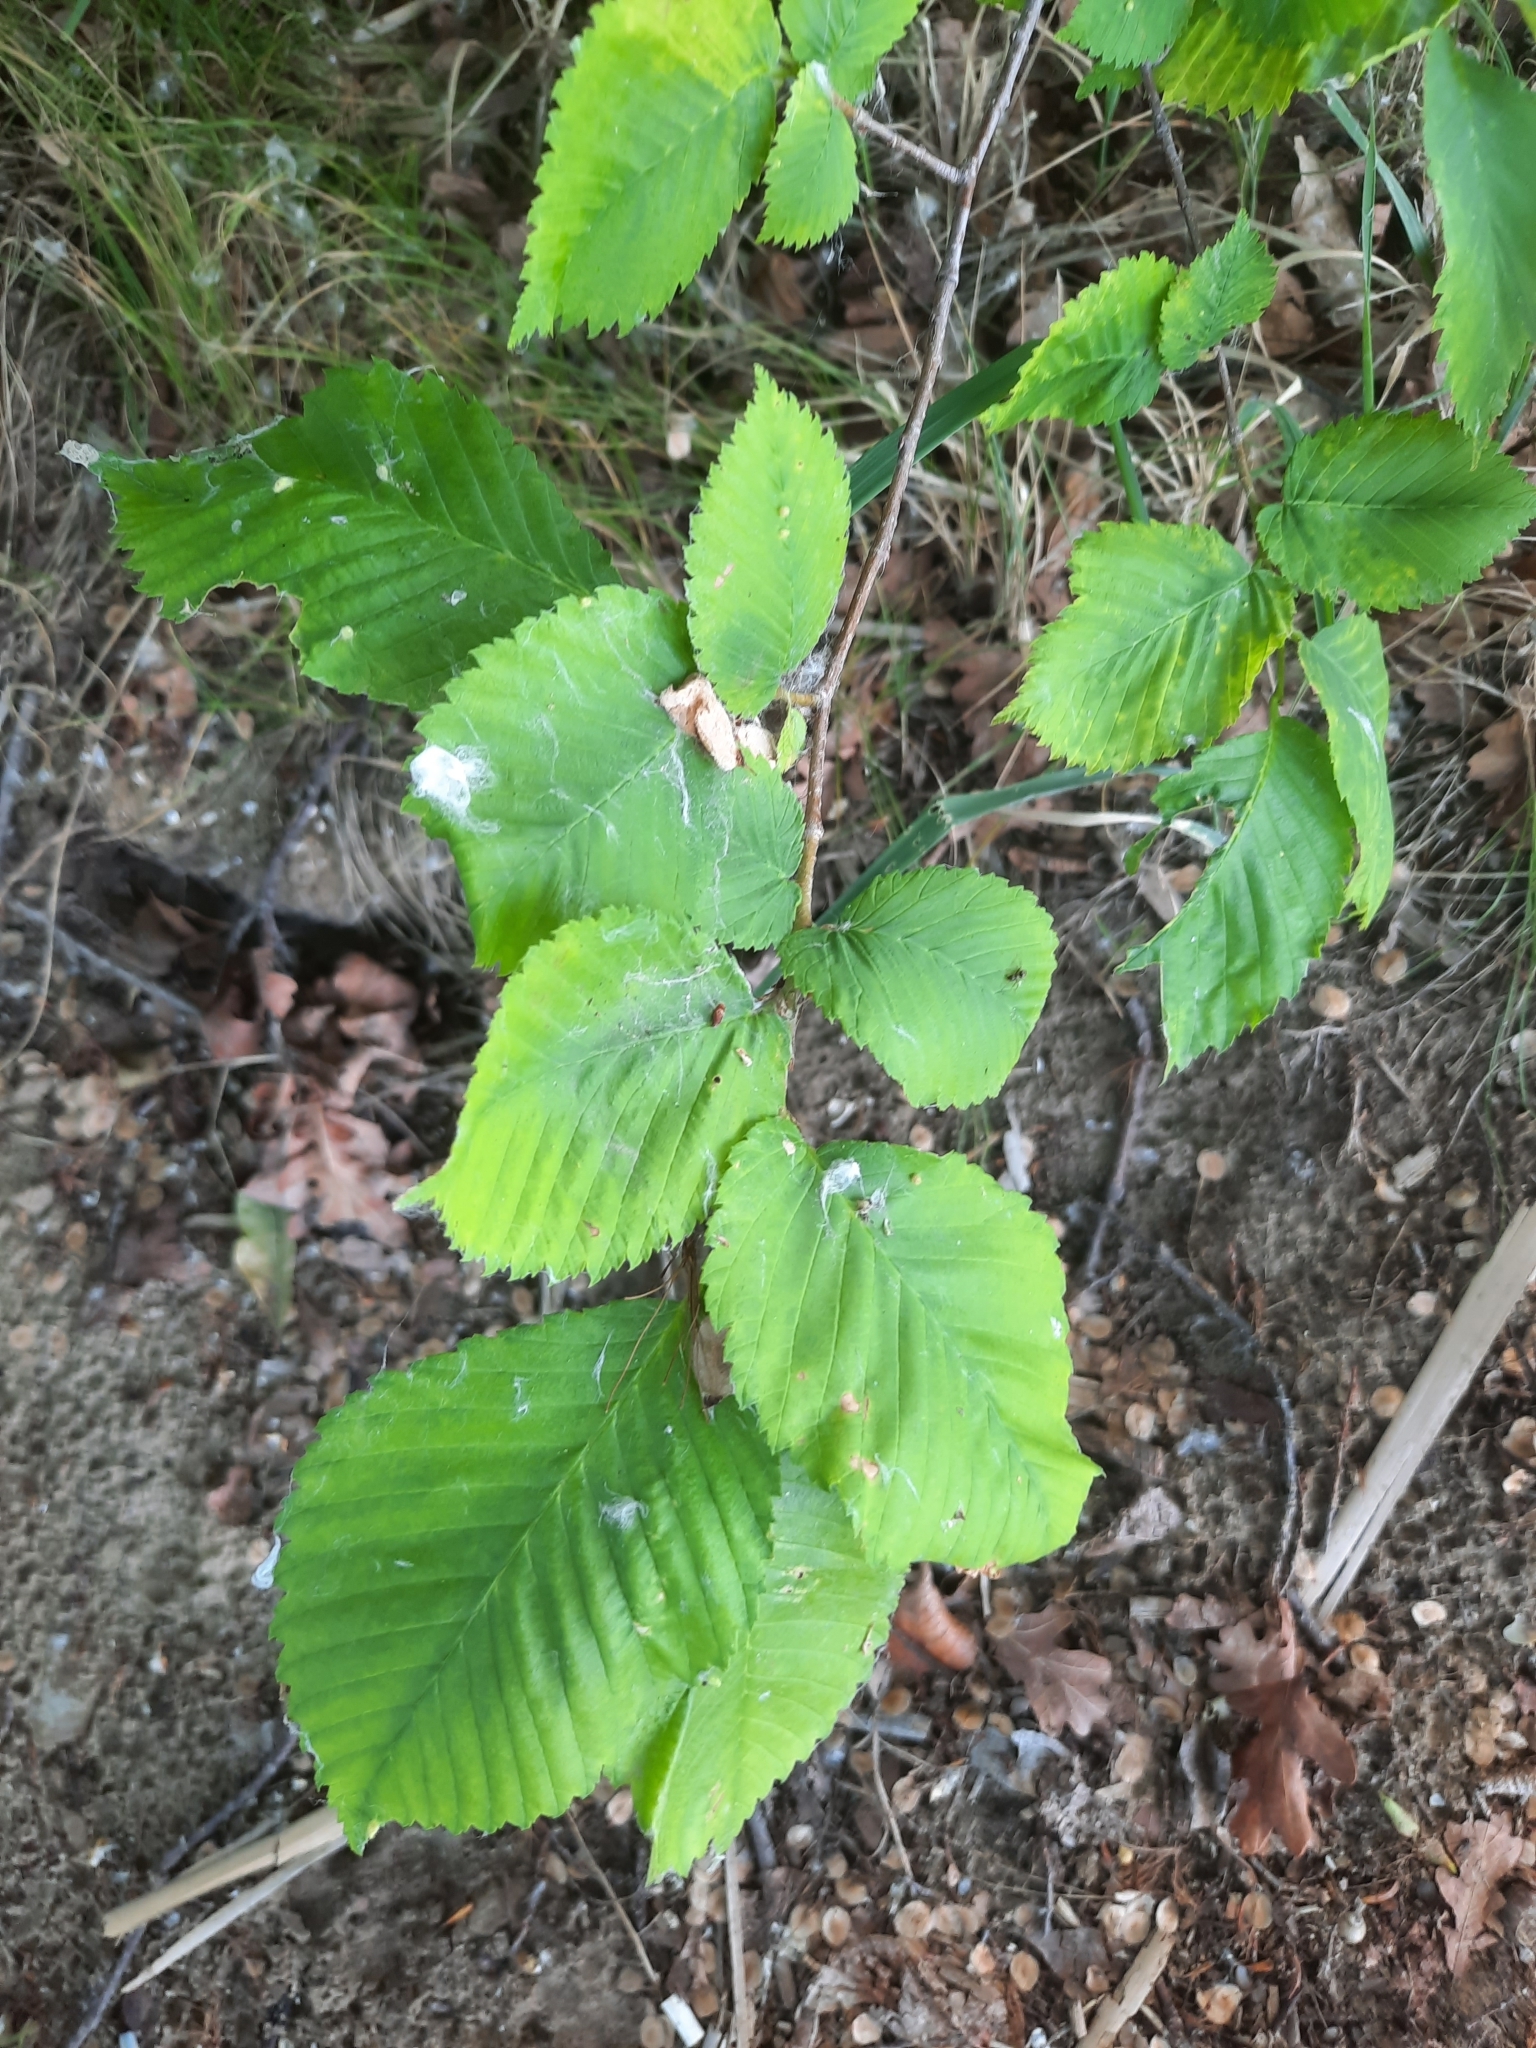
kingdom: Plantae
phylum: Tracheophyta
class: Magnoliopsida
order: Rosales
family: Ulmaceae
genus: Ulmus
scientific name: Ulmus laevis
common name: European white-elm
